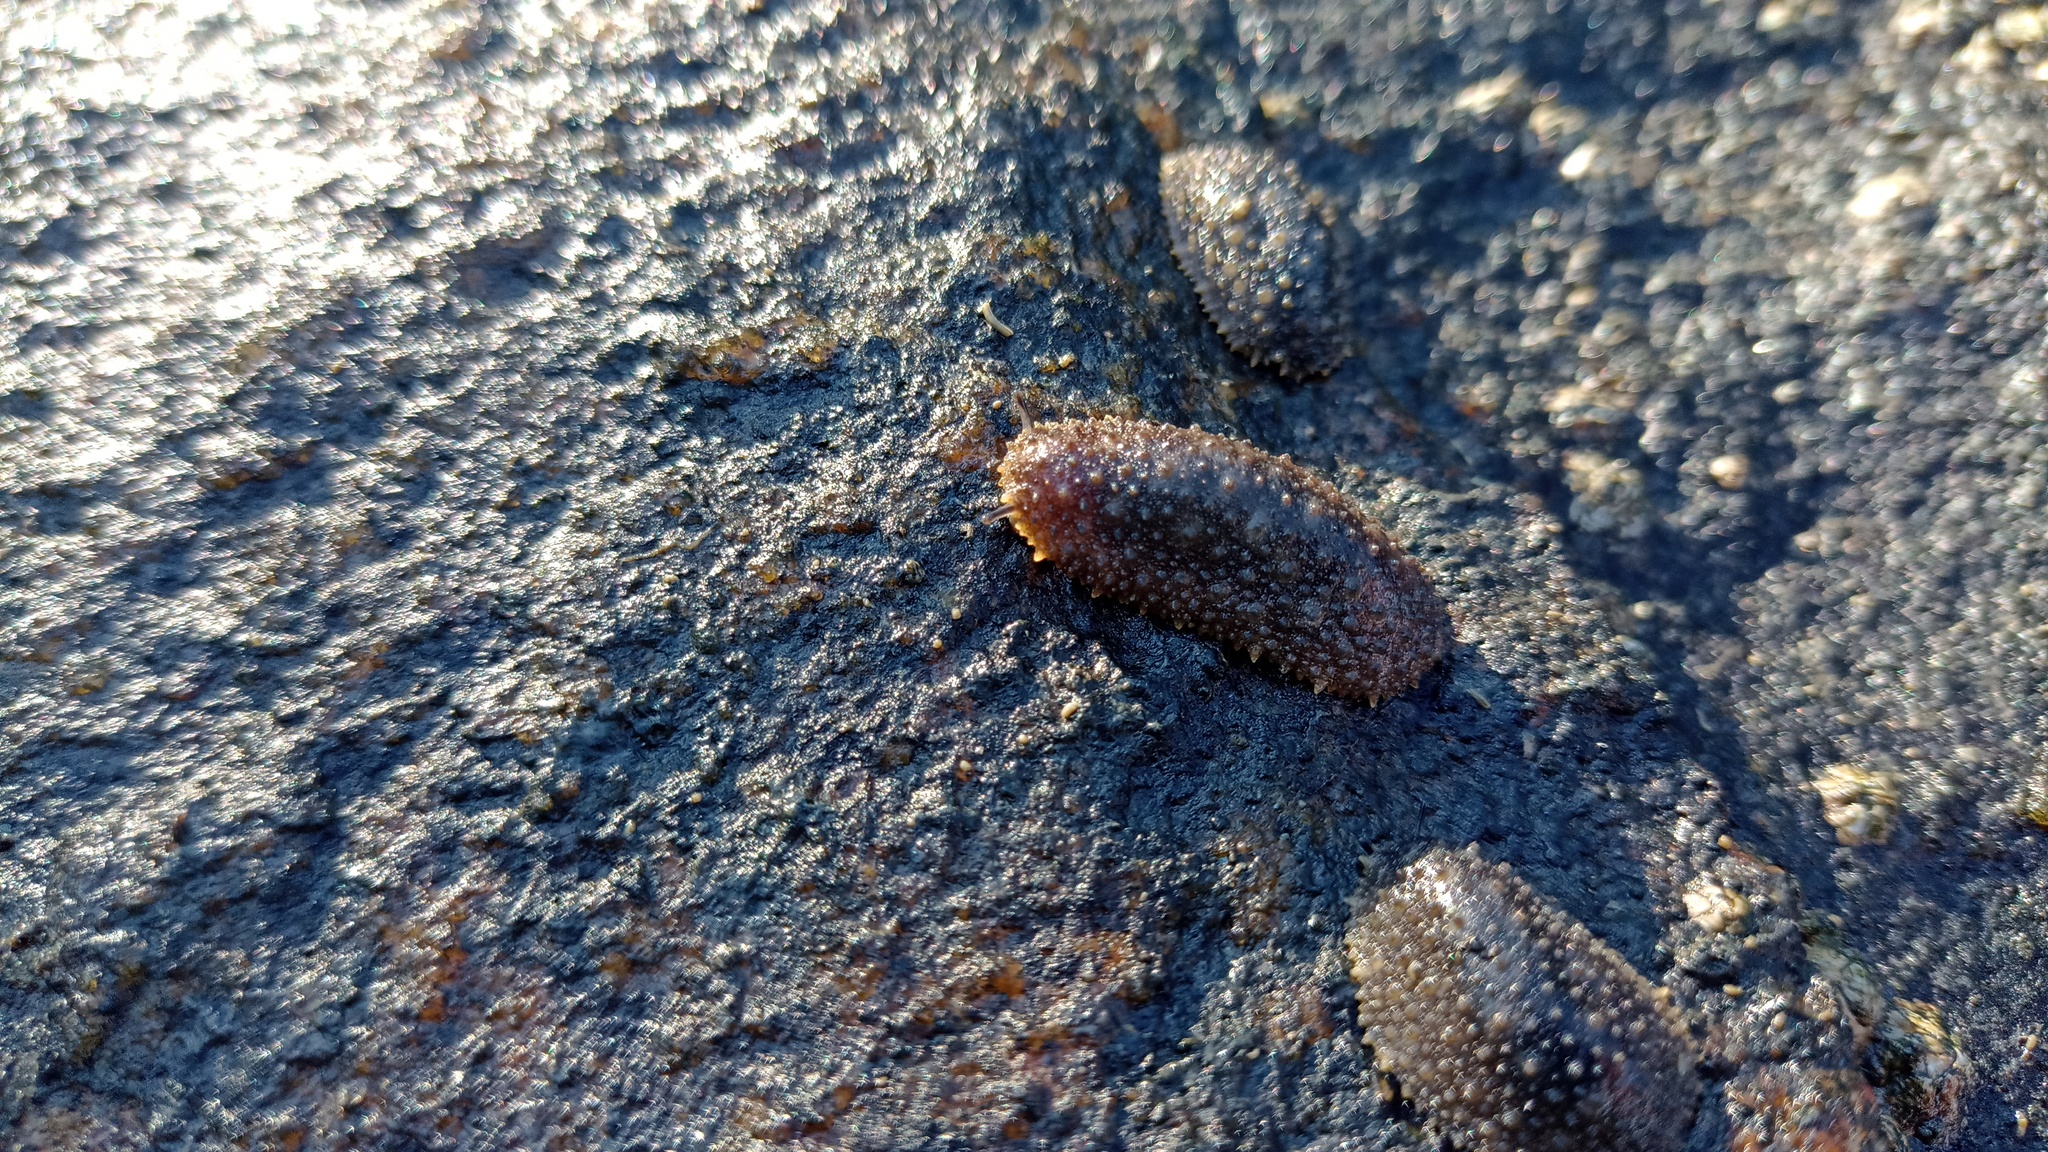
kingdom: Animalia
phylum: Mollusca
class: Gastropoda
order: Systellommatophora
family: Onchidiidae
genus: Onchidella
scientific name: Onchidella incisa
